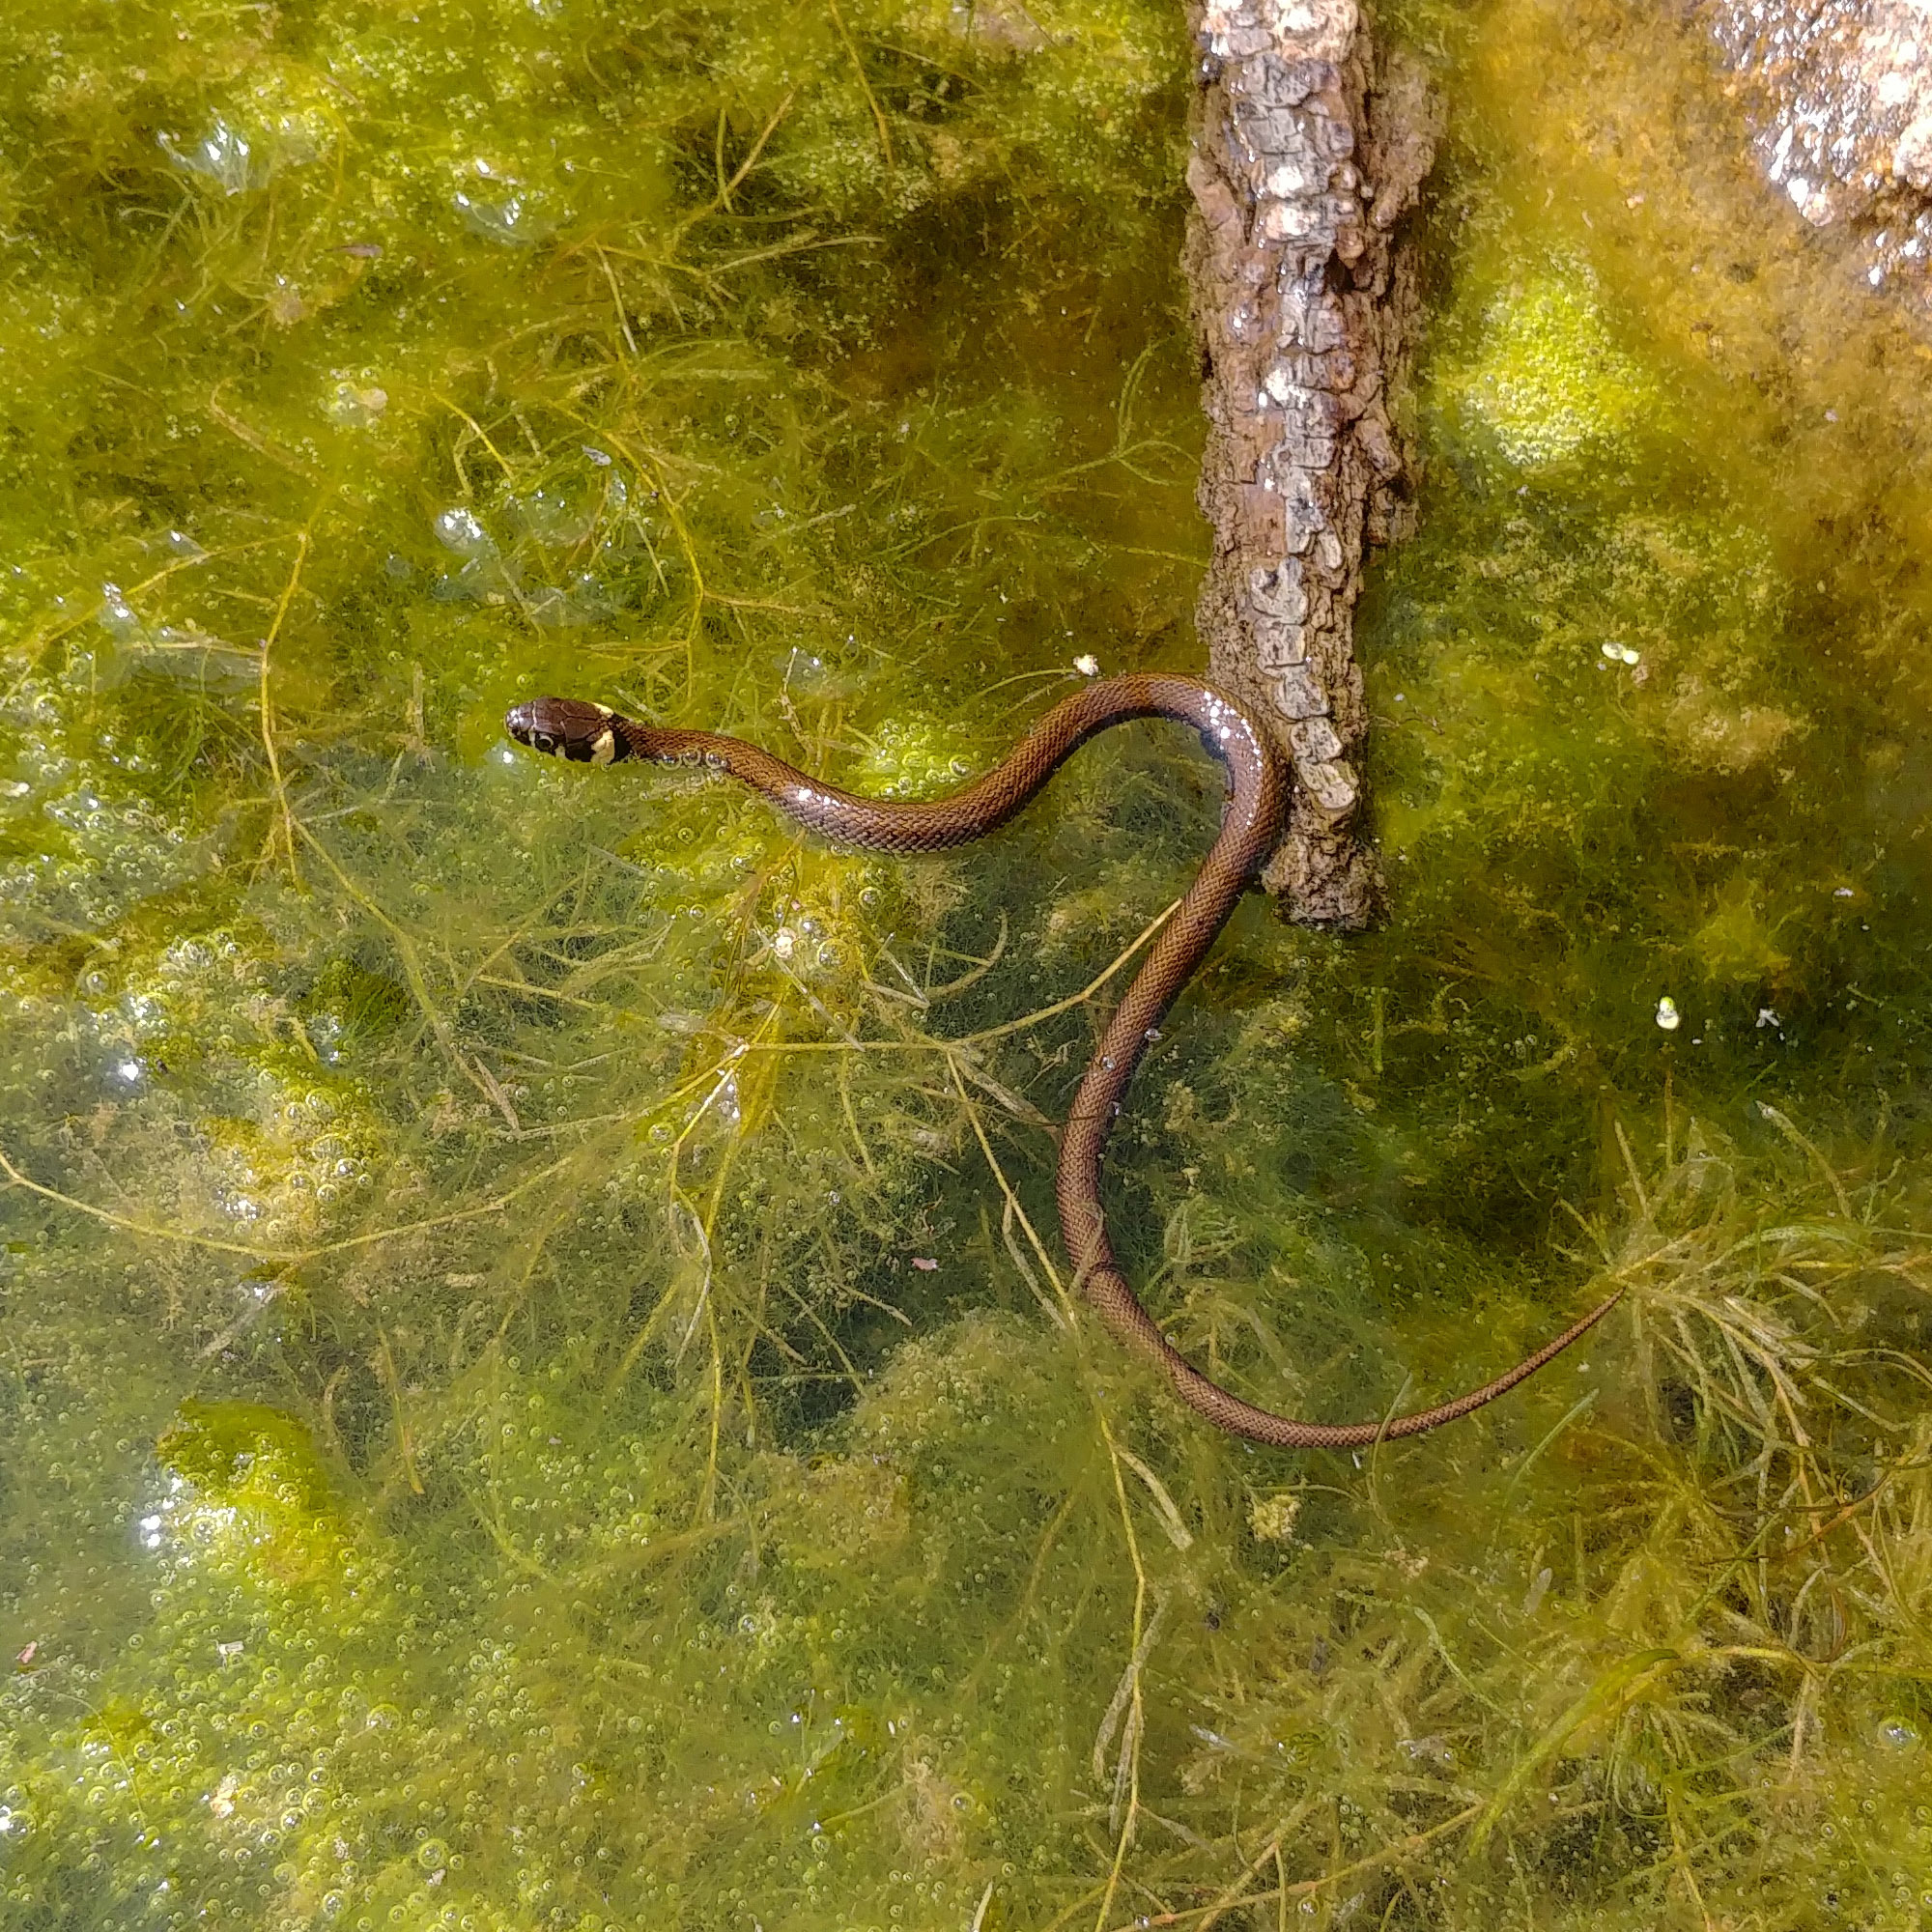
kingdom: Animalia
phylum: Chordata
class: Squamata
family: Colubridae
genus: Natrix
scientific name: Natrix natrix
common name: Grass snake
